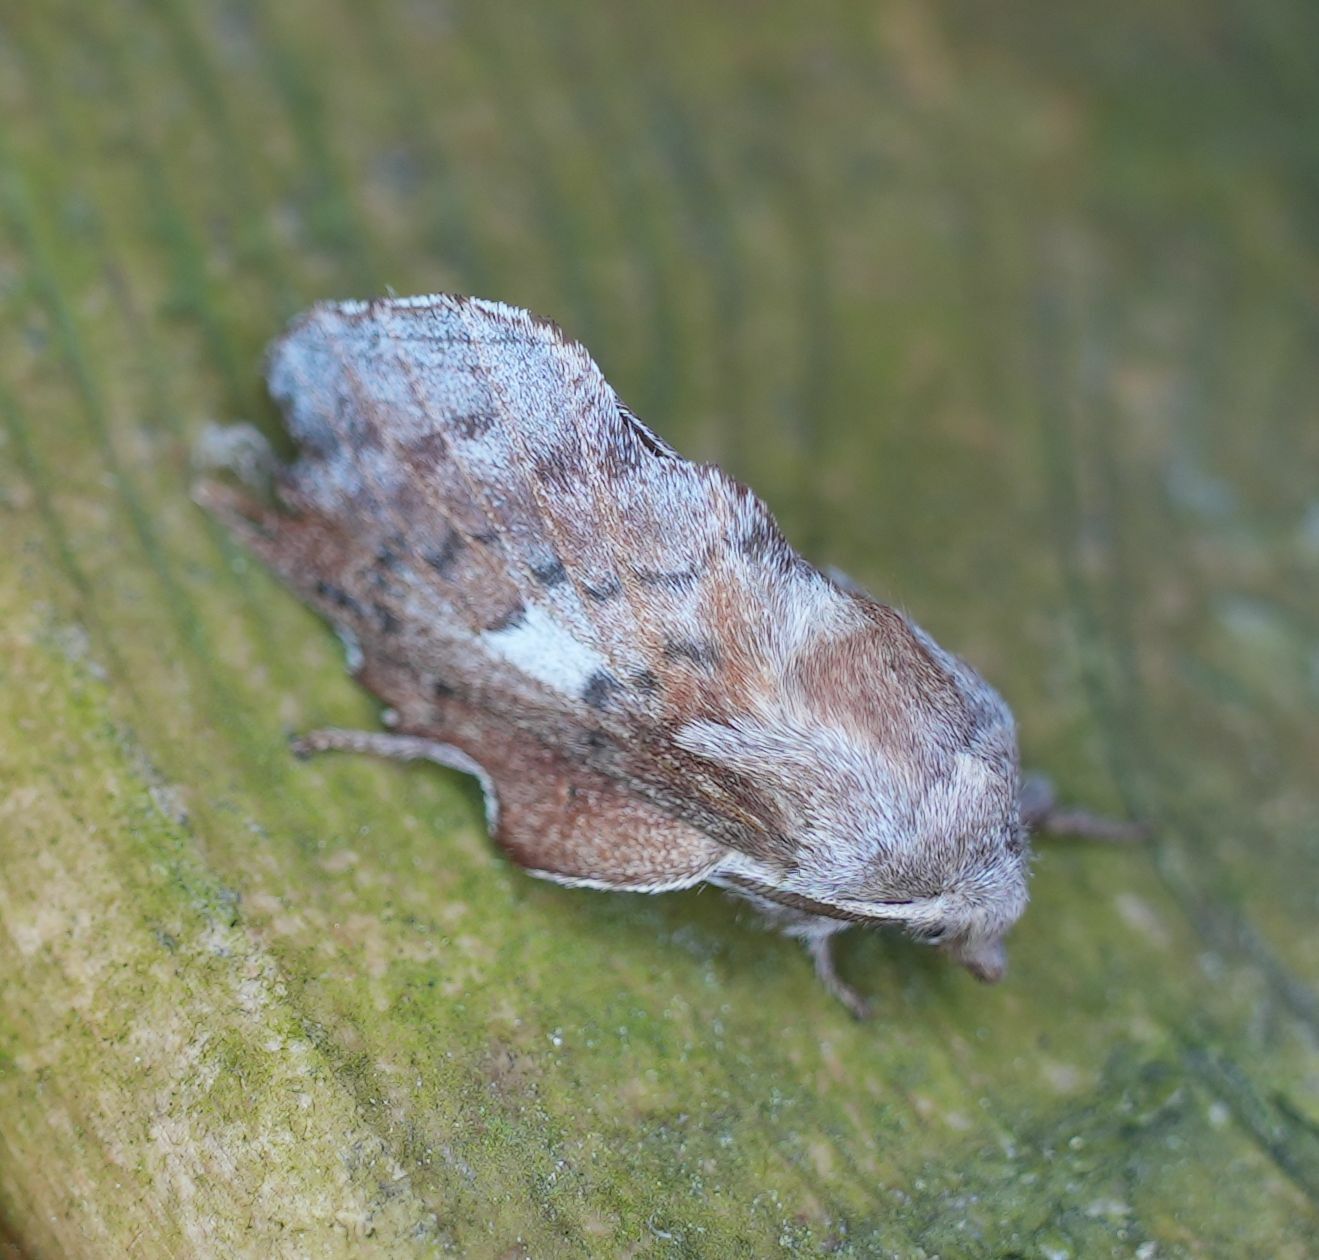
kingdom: Animalia
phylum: Arthropoda
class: Insecta
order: Lepidoptera
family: Lasiocampidae
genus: Phyllodesma
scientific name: Phyllodesma americana
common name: American lappet moth
